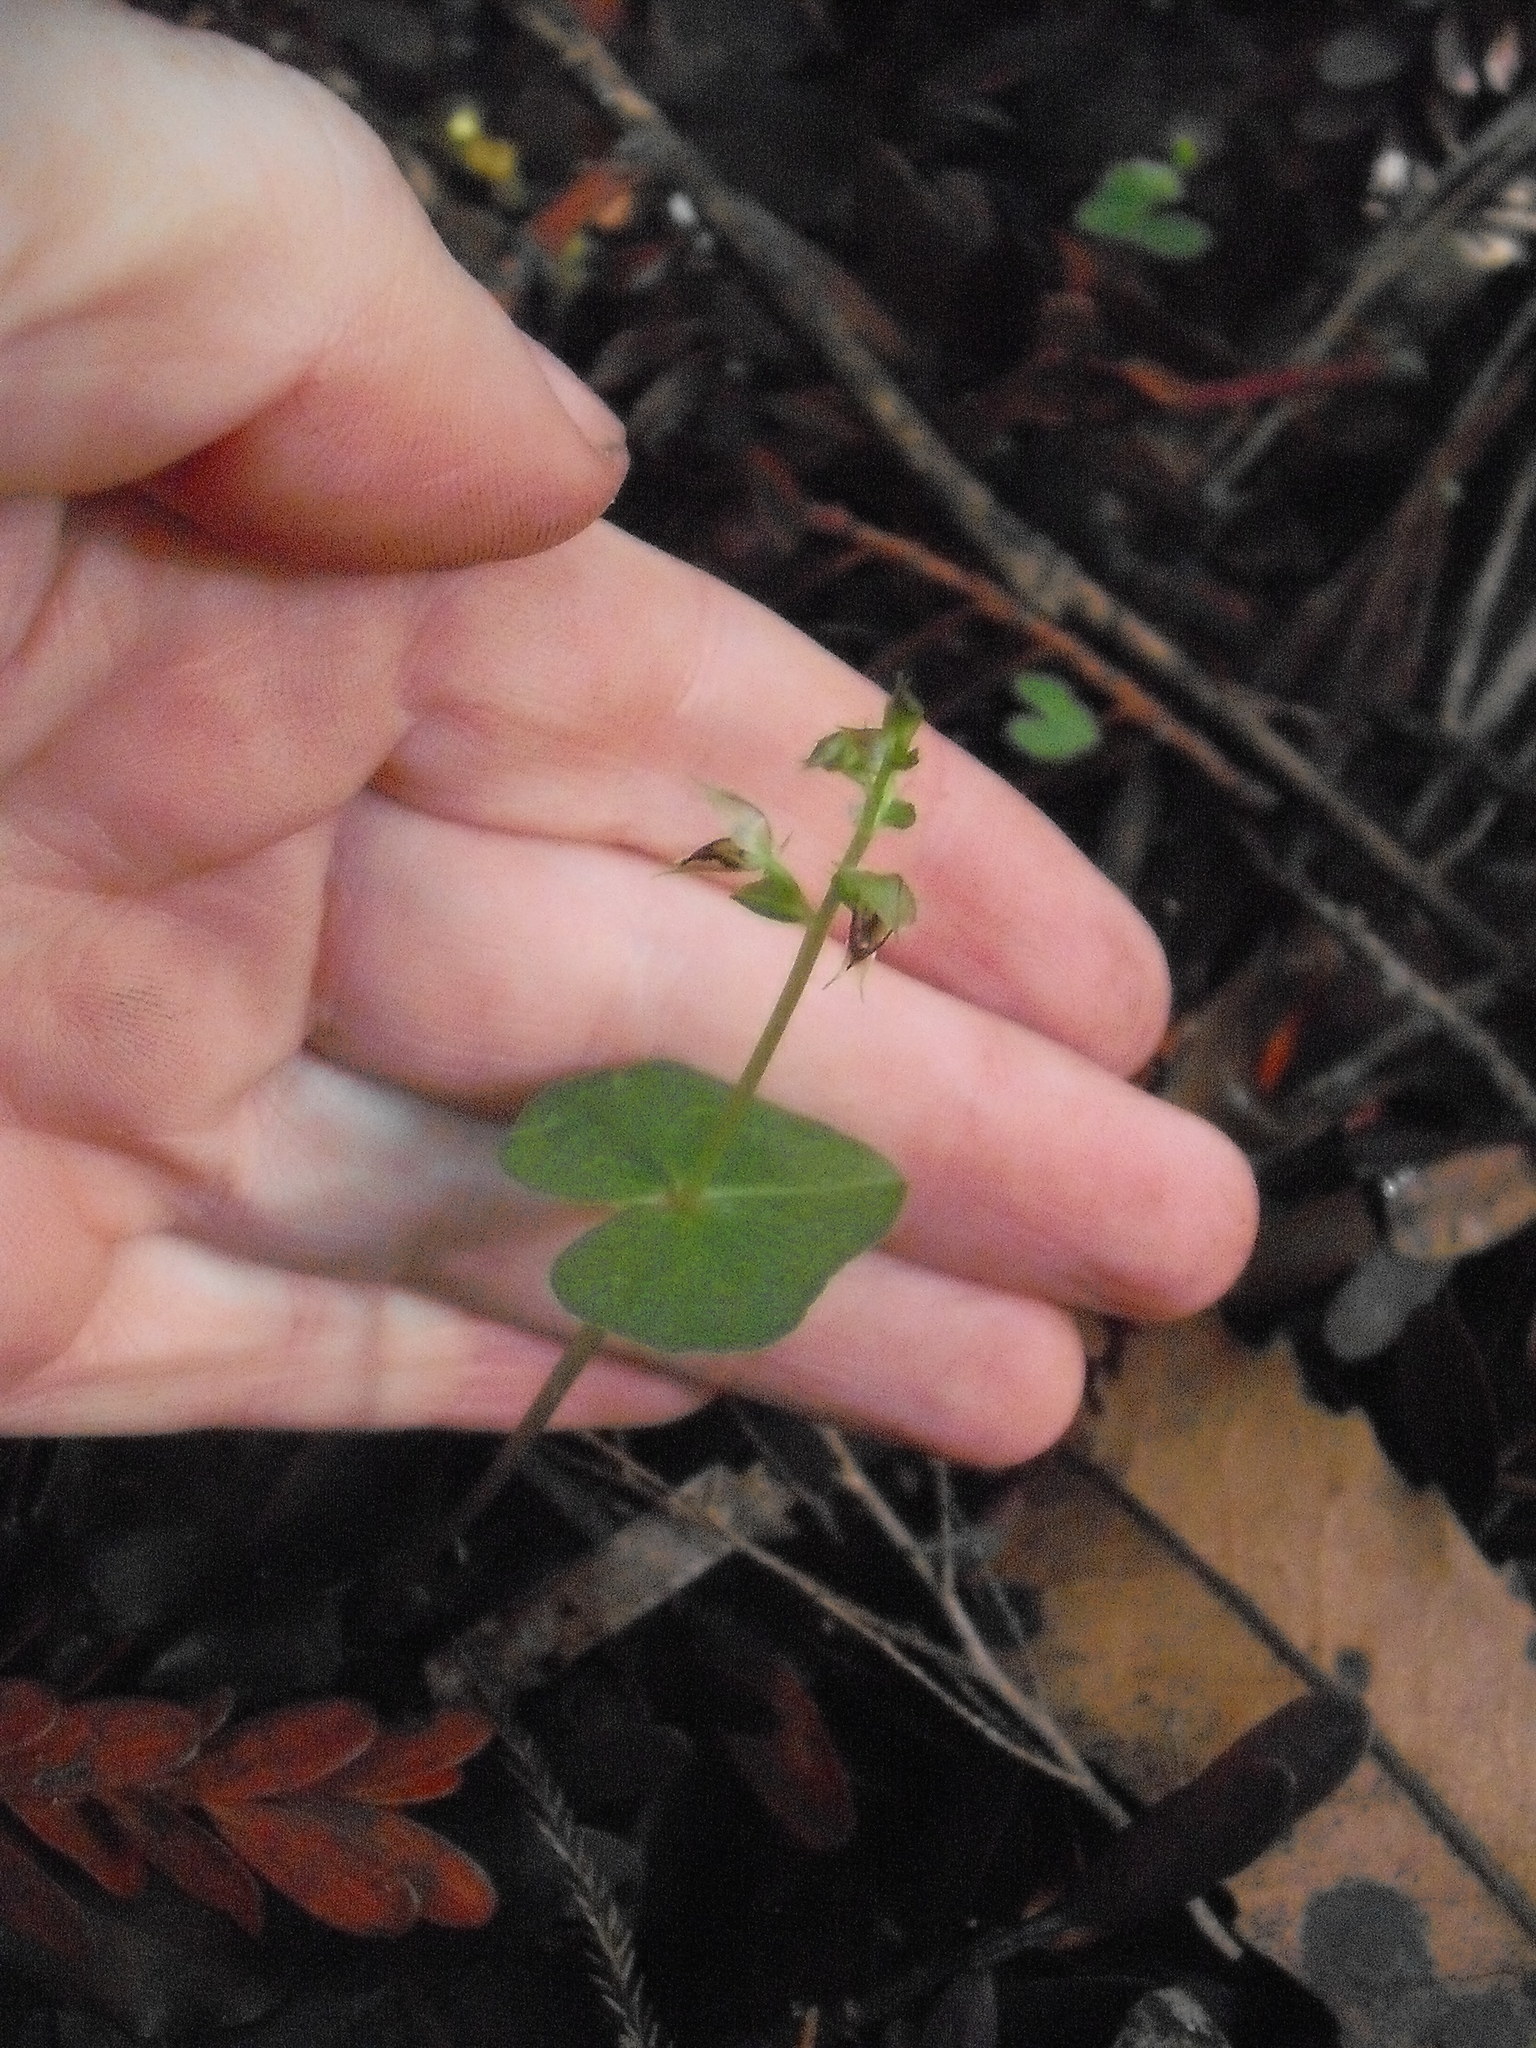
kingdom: Plantae
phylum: Tracheophyta
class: Liliopsida
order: Asparagales
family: Orchidaceae
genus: Acianthus
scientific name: Acianthus sinclairii
